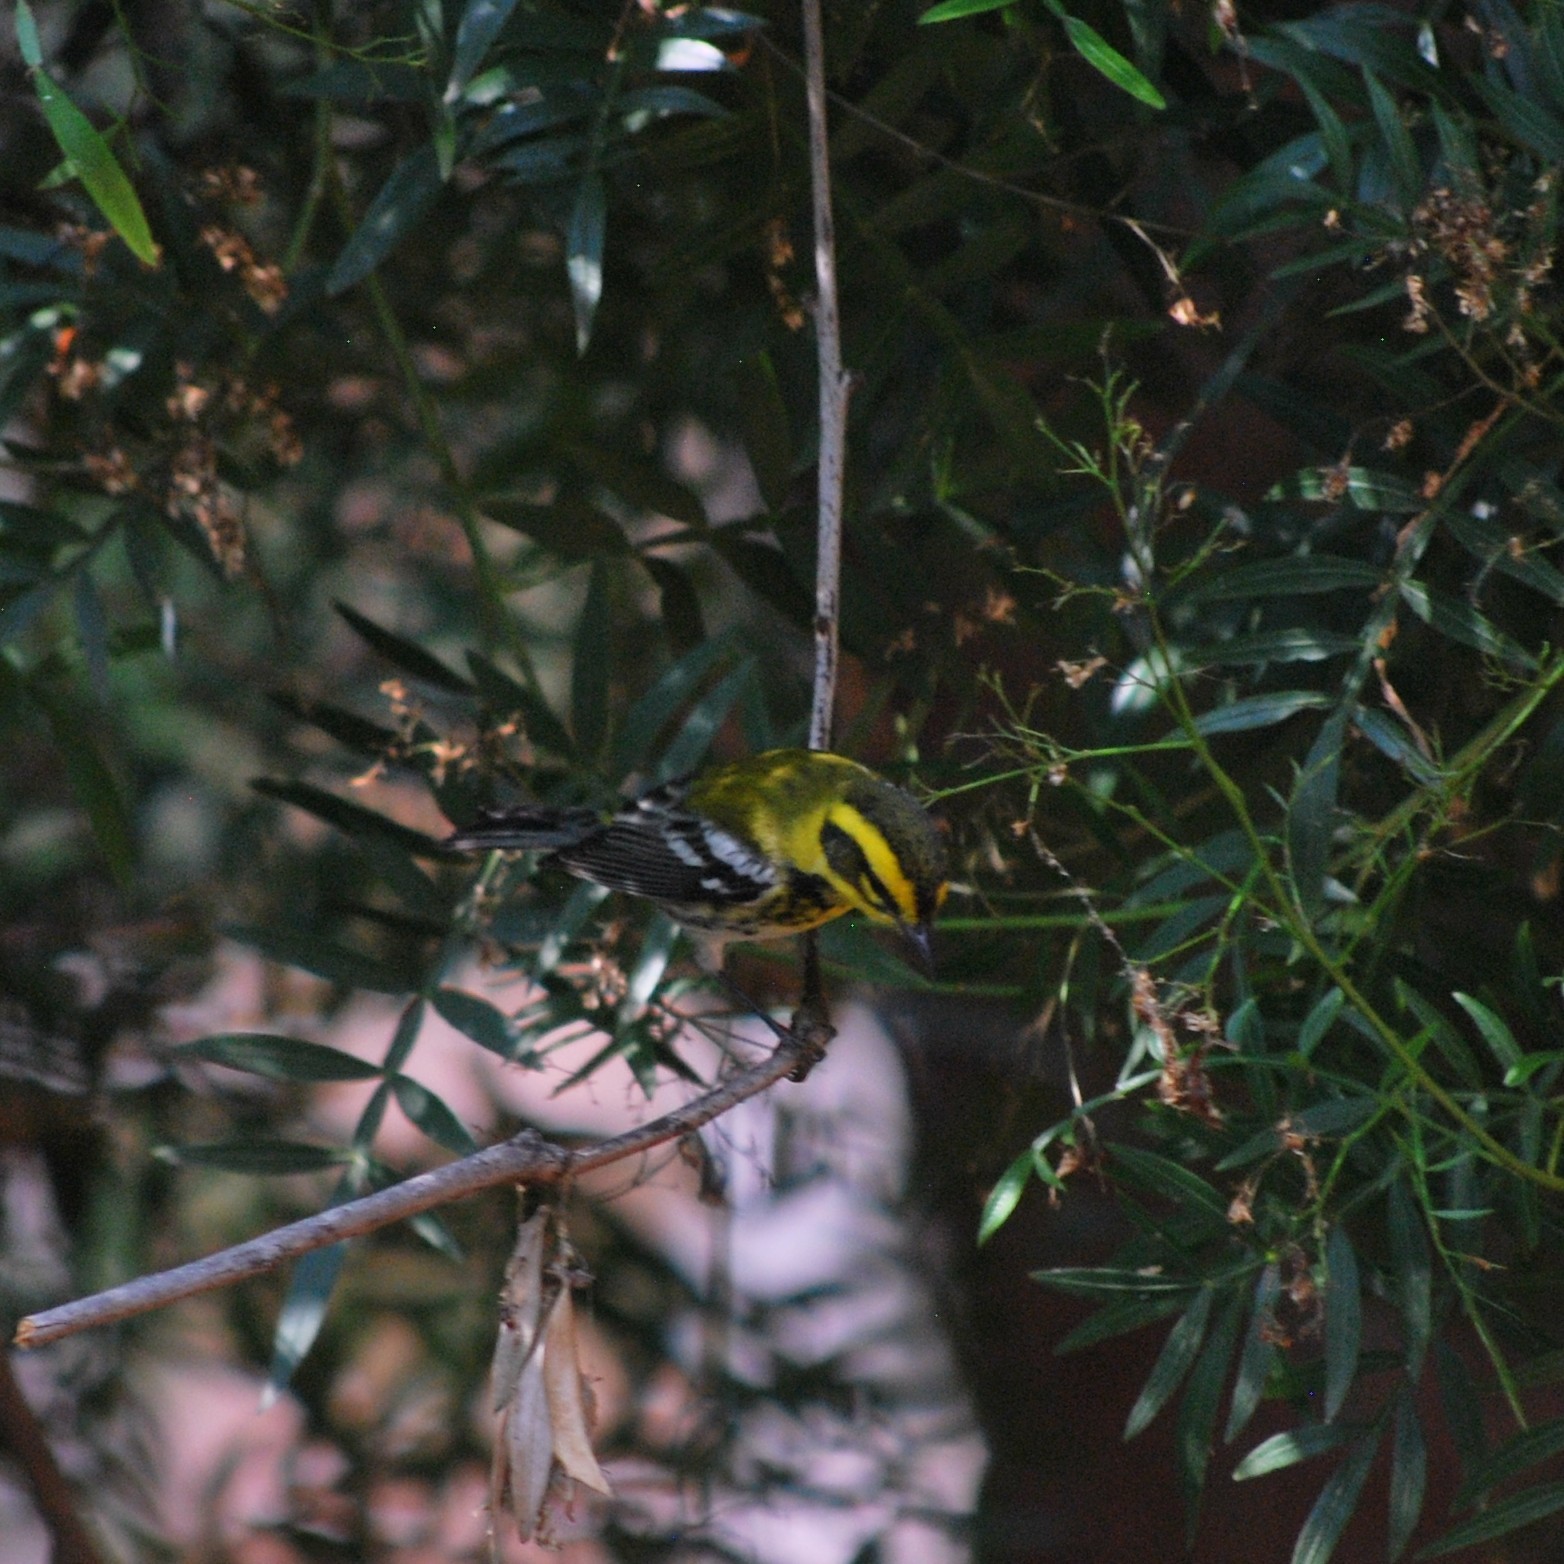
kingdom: Animalia
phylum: Chordata
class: Aves
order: Passeriformes
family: Parulidae
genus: Setophaga
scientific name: Setophaga townsendi
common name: Townsend's warbler
